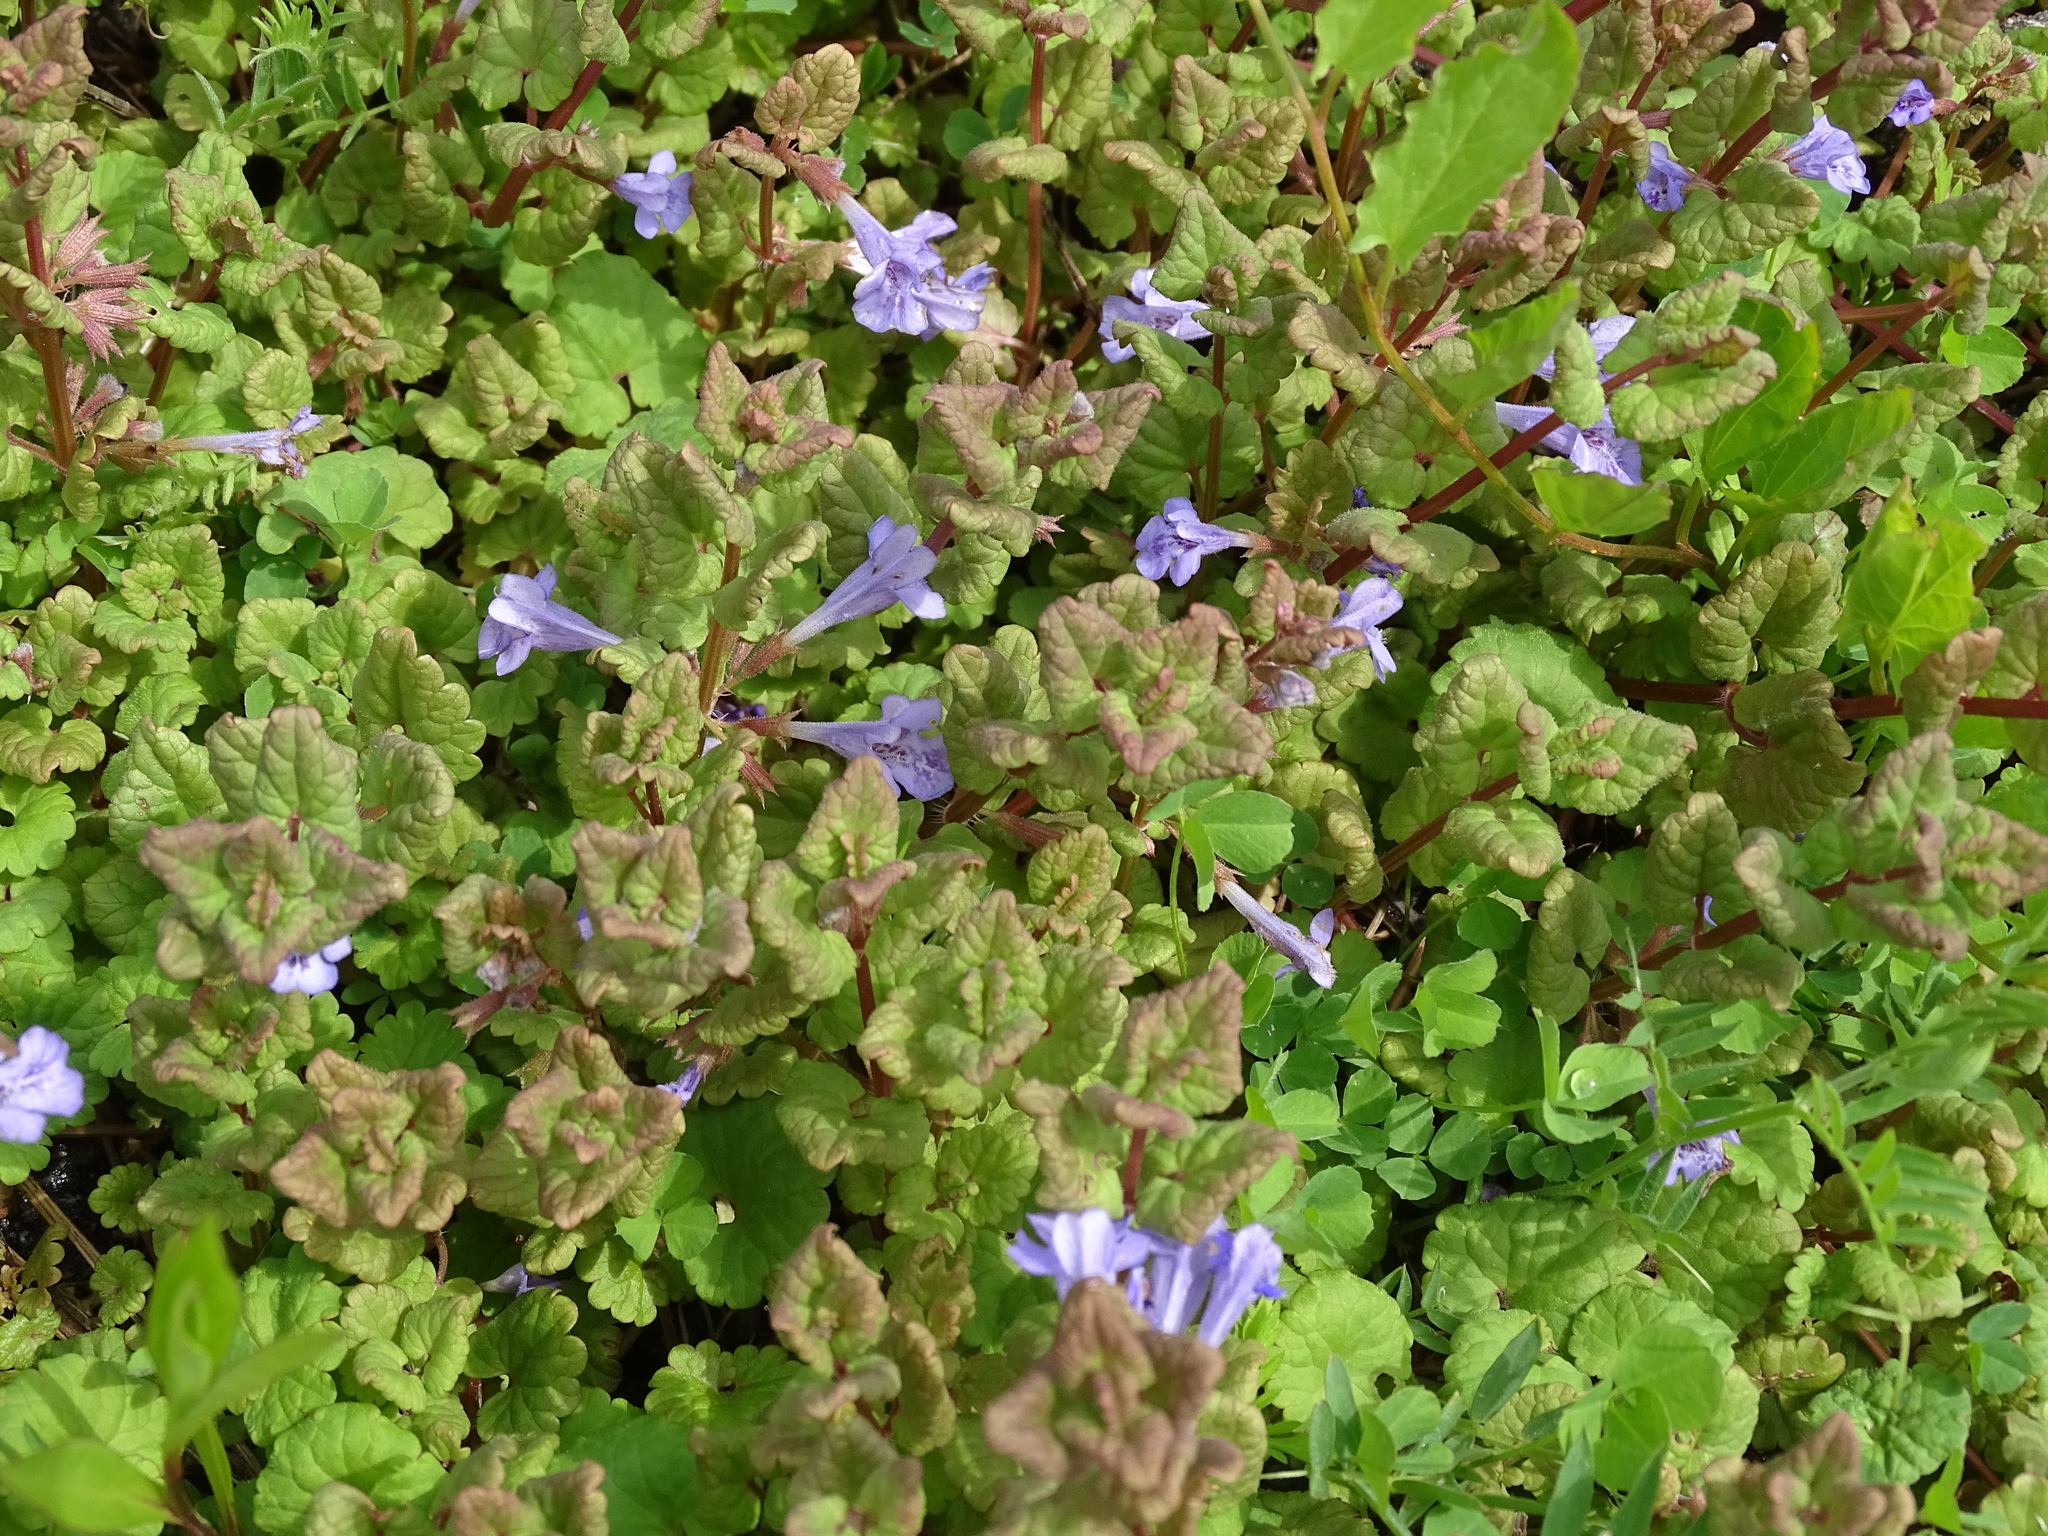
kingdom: Plantae
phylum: Tracheophyta
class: Magnoliopsida
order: Lamiales
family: Lamiaceae
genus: Glechoma
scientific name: Glechoma hederacea
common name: Ground ivy
